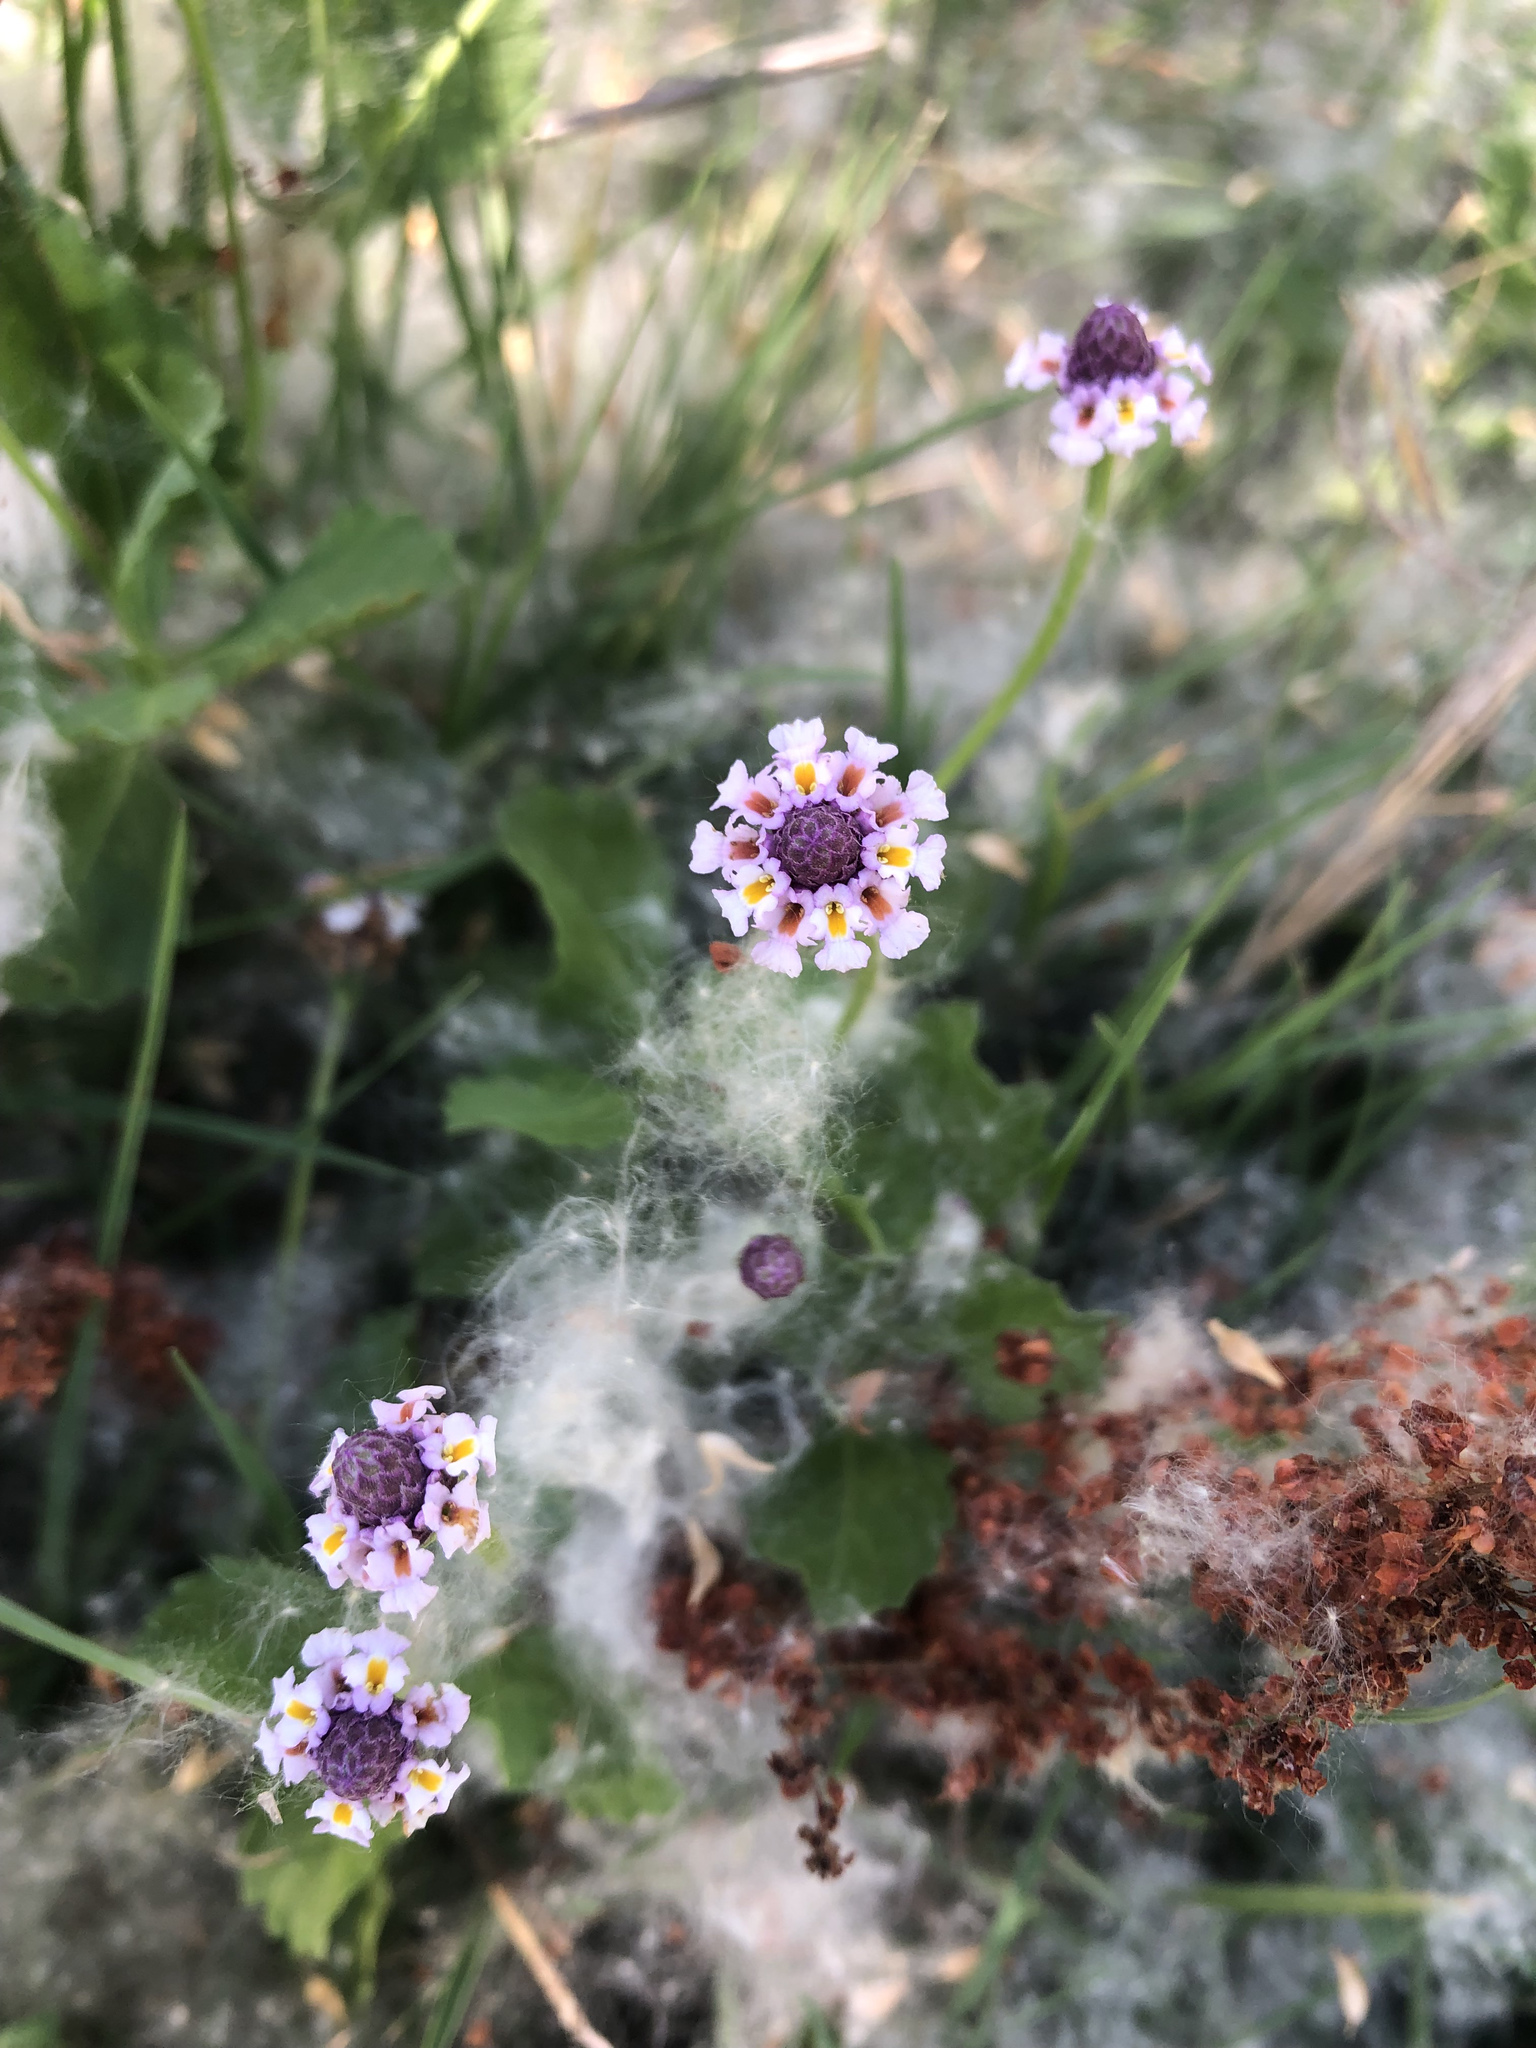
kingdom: Plantae
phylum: Tracheophyta
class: Magnoliopsida
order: Lamiales
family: Verbenaceae
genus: Phyla
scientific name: Phyla nodiflora
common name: Frogfruit
